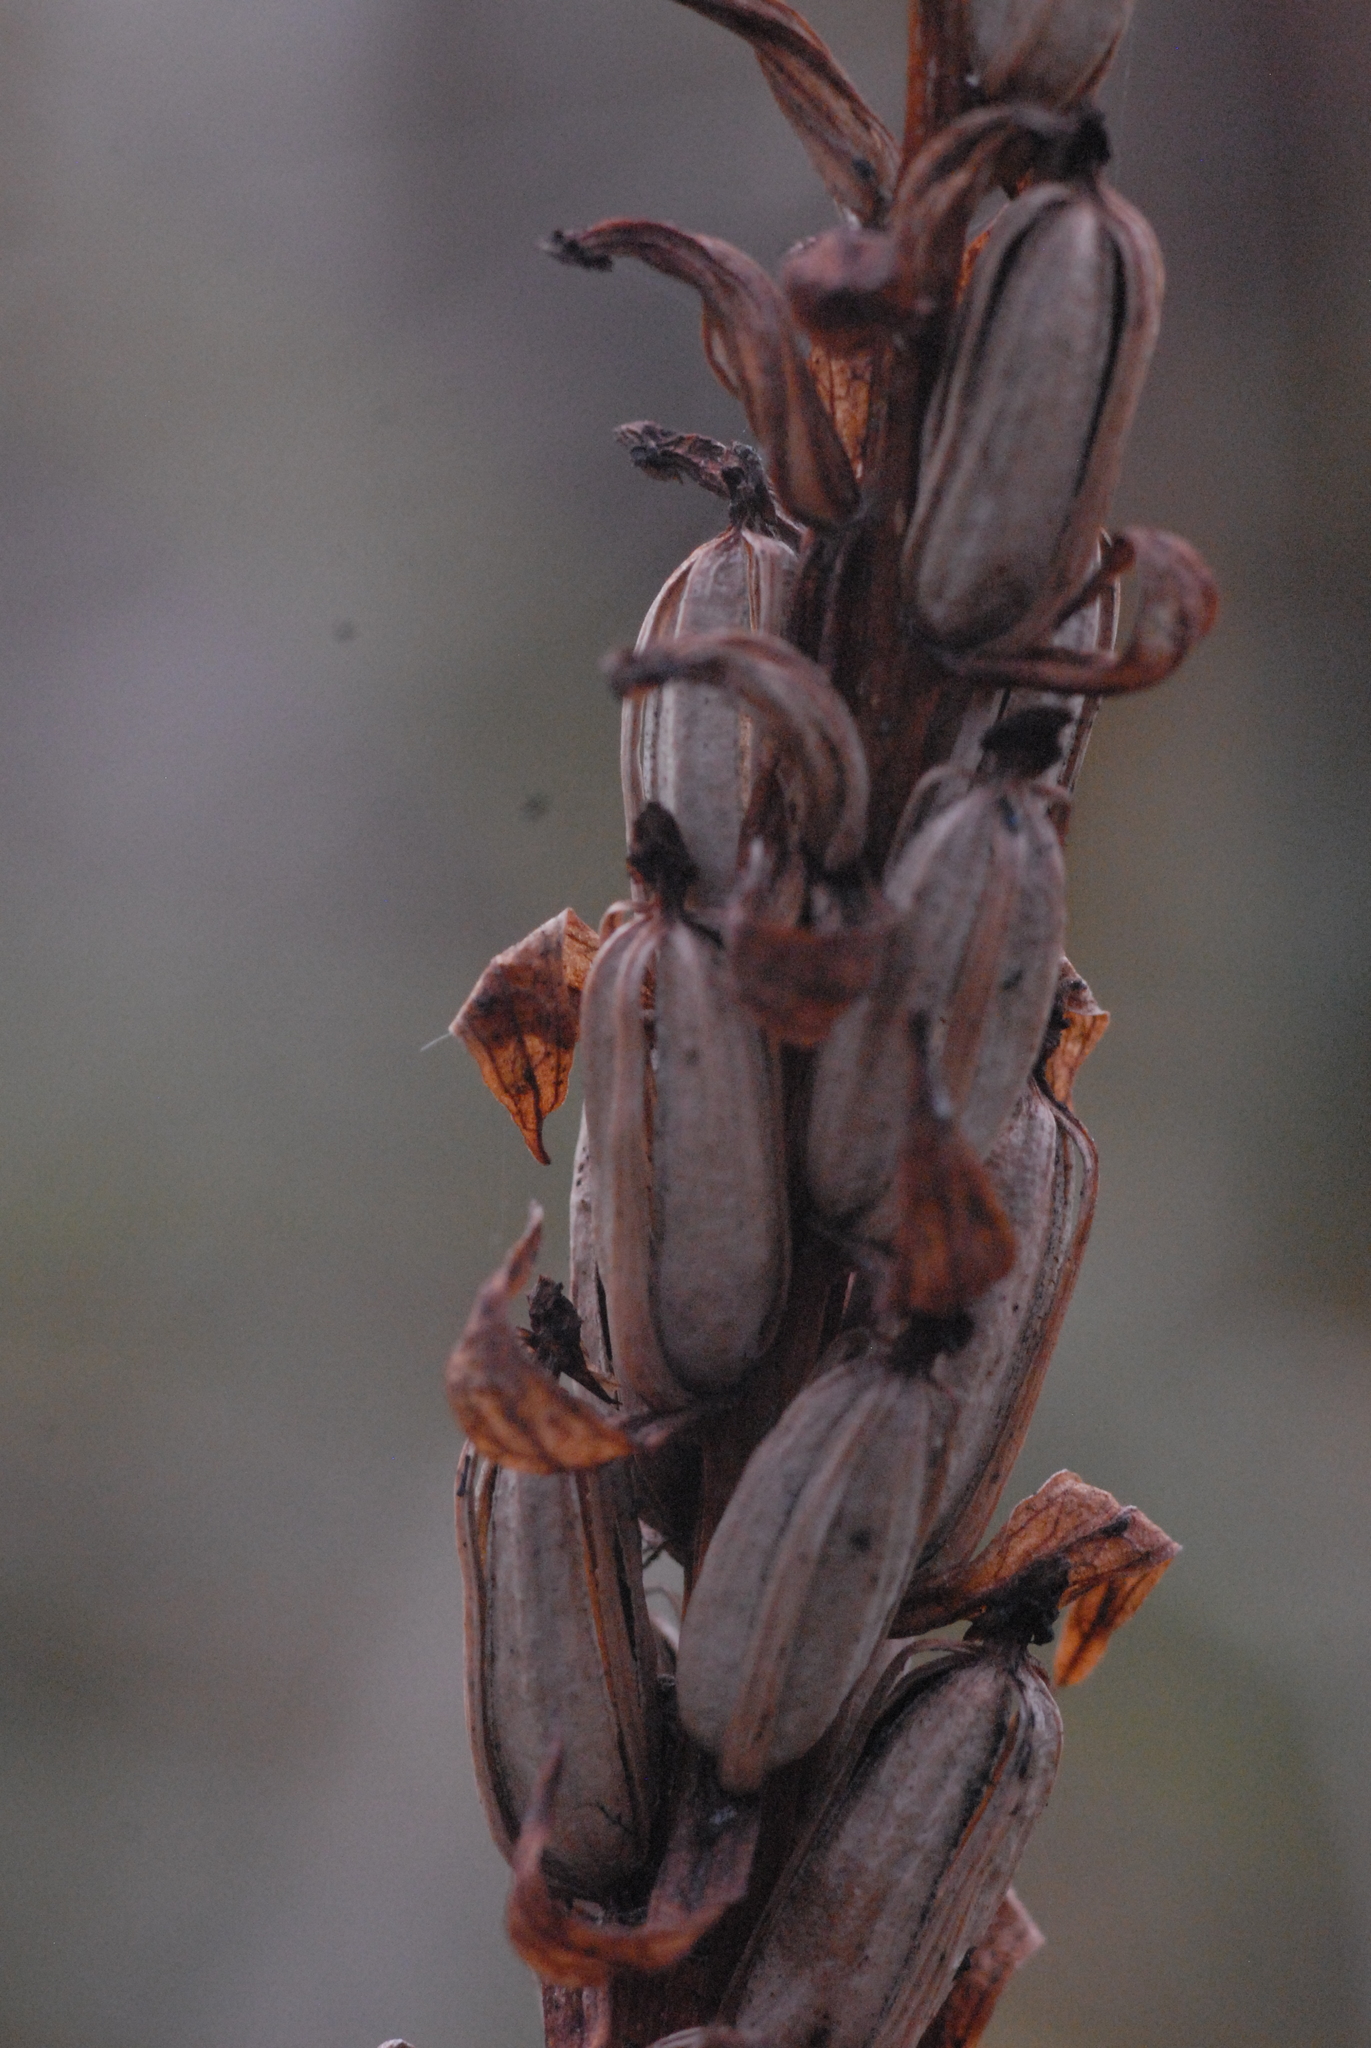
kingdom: Plantae
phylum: Tracheophyta
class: Liliopsida
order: Asparagales
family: Orchidaceae
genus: Dactylorhiza
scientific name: Dactylorhiza majalis
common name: Marsh orchid
